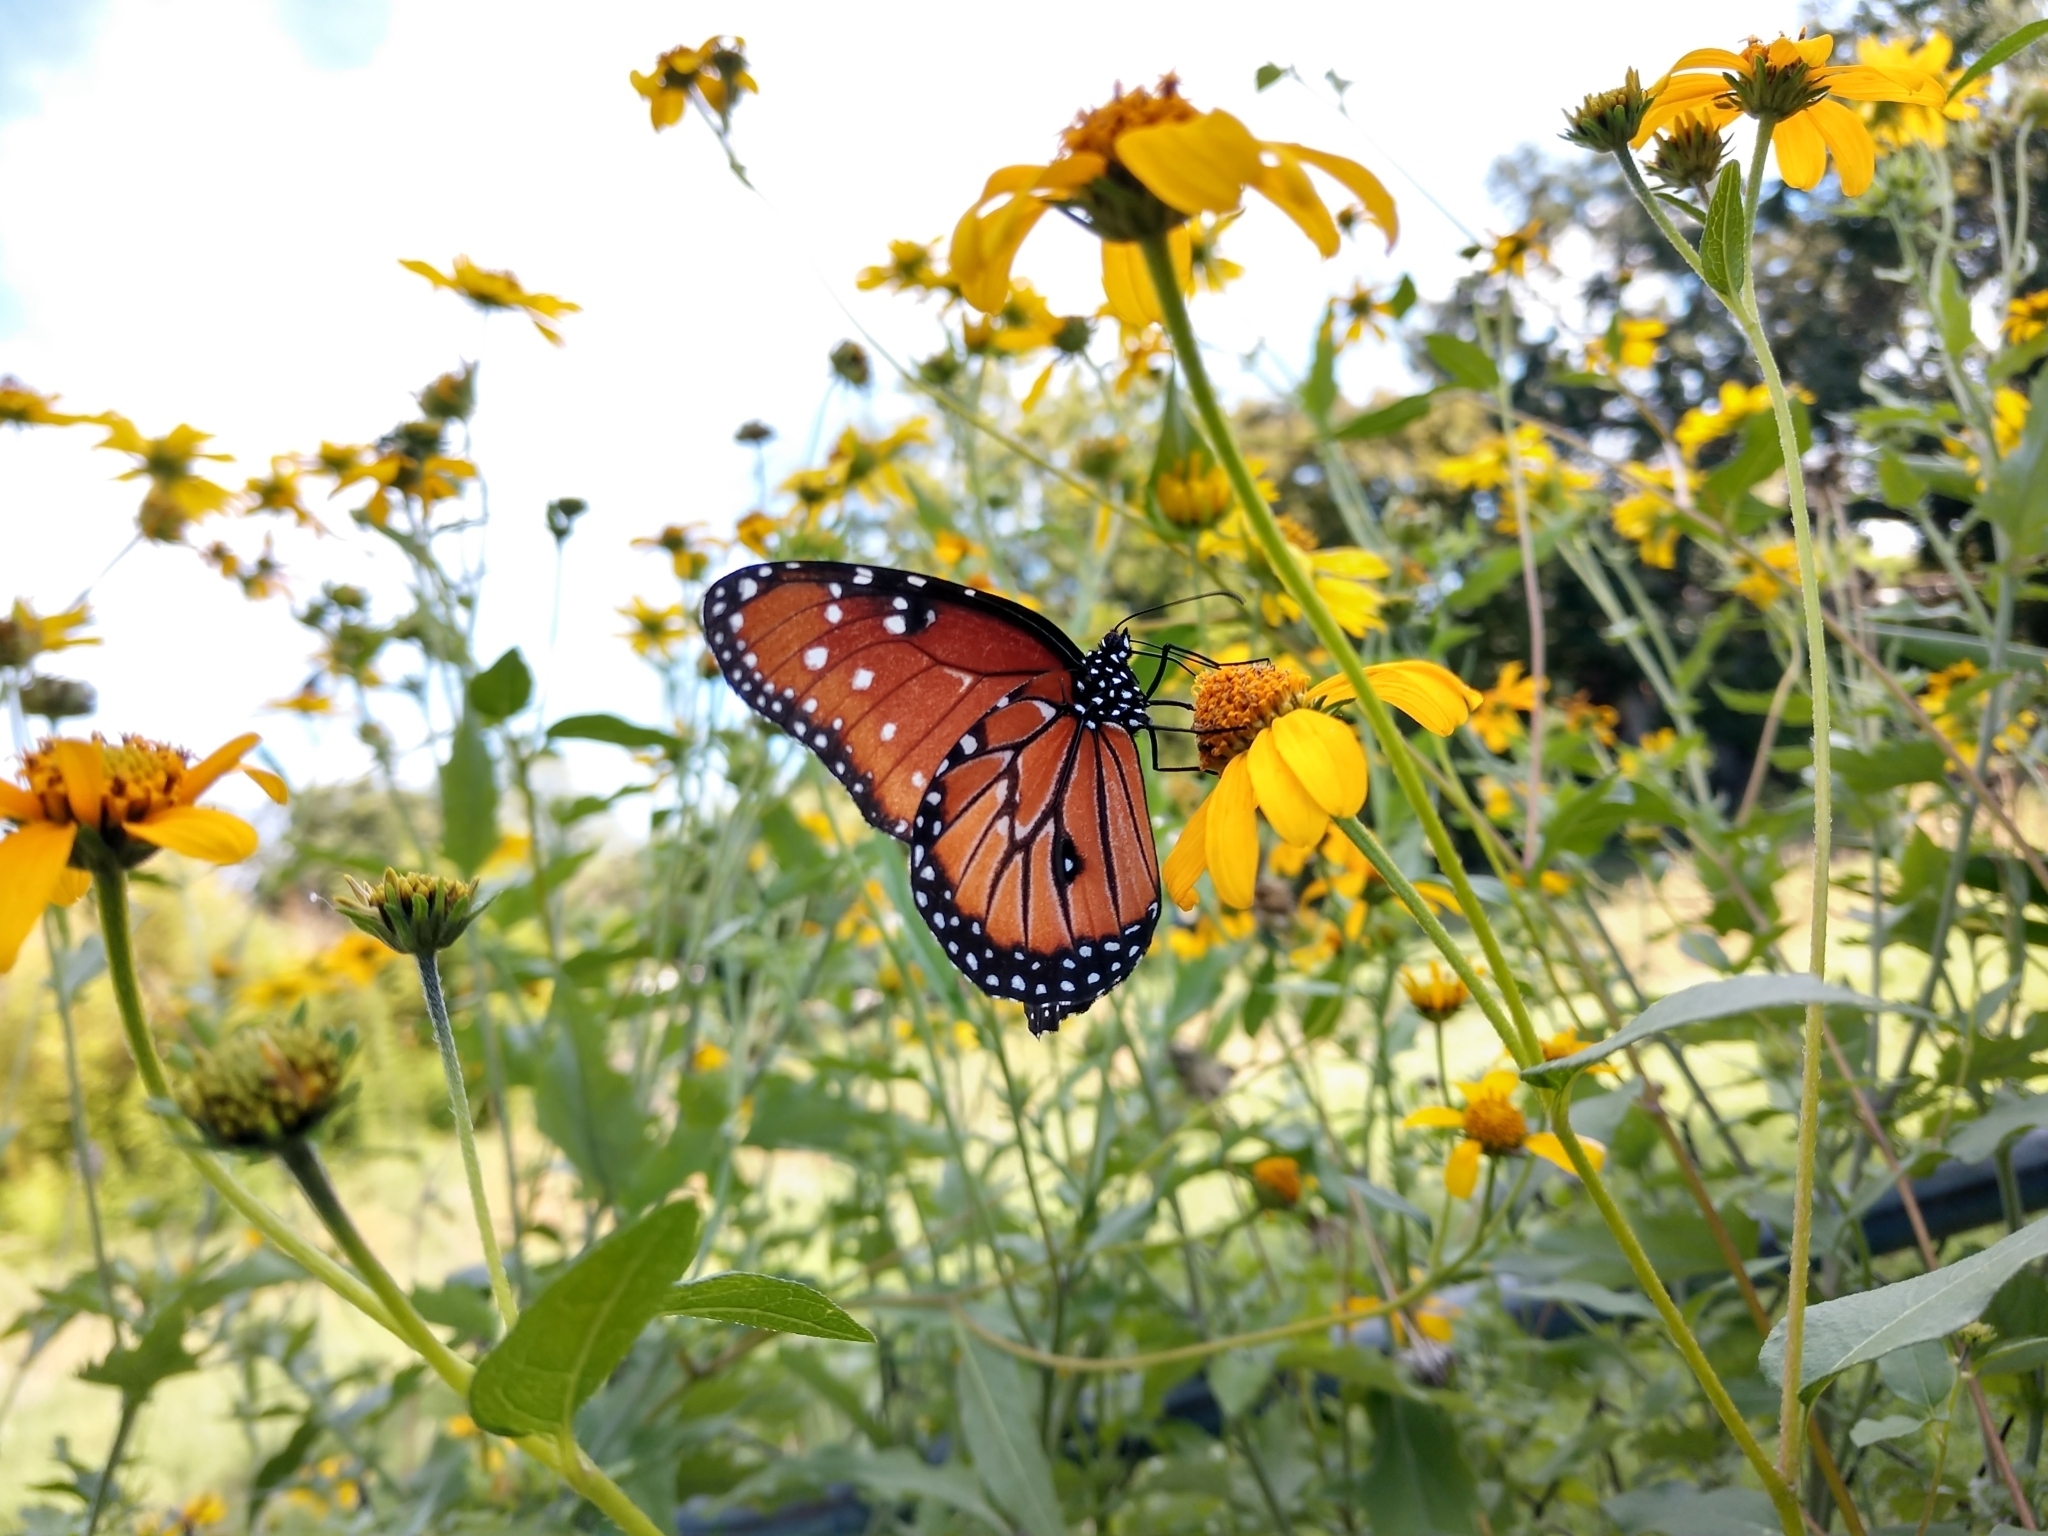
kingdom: Animalia
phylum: Arthropoda
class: Insecta
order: Lepidoptera
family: Nymphalidae
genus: Danaus
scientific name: Danaus gilippus
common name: Queen
